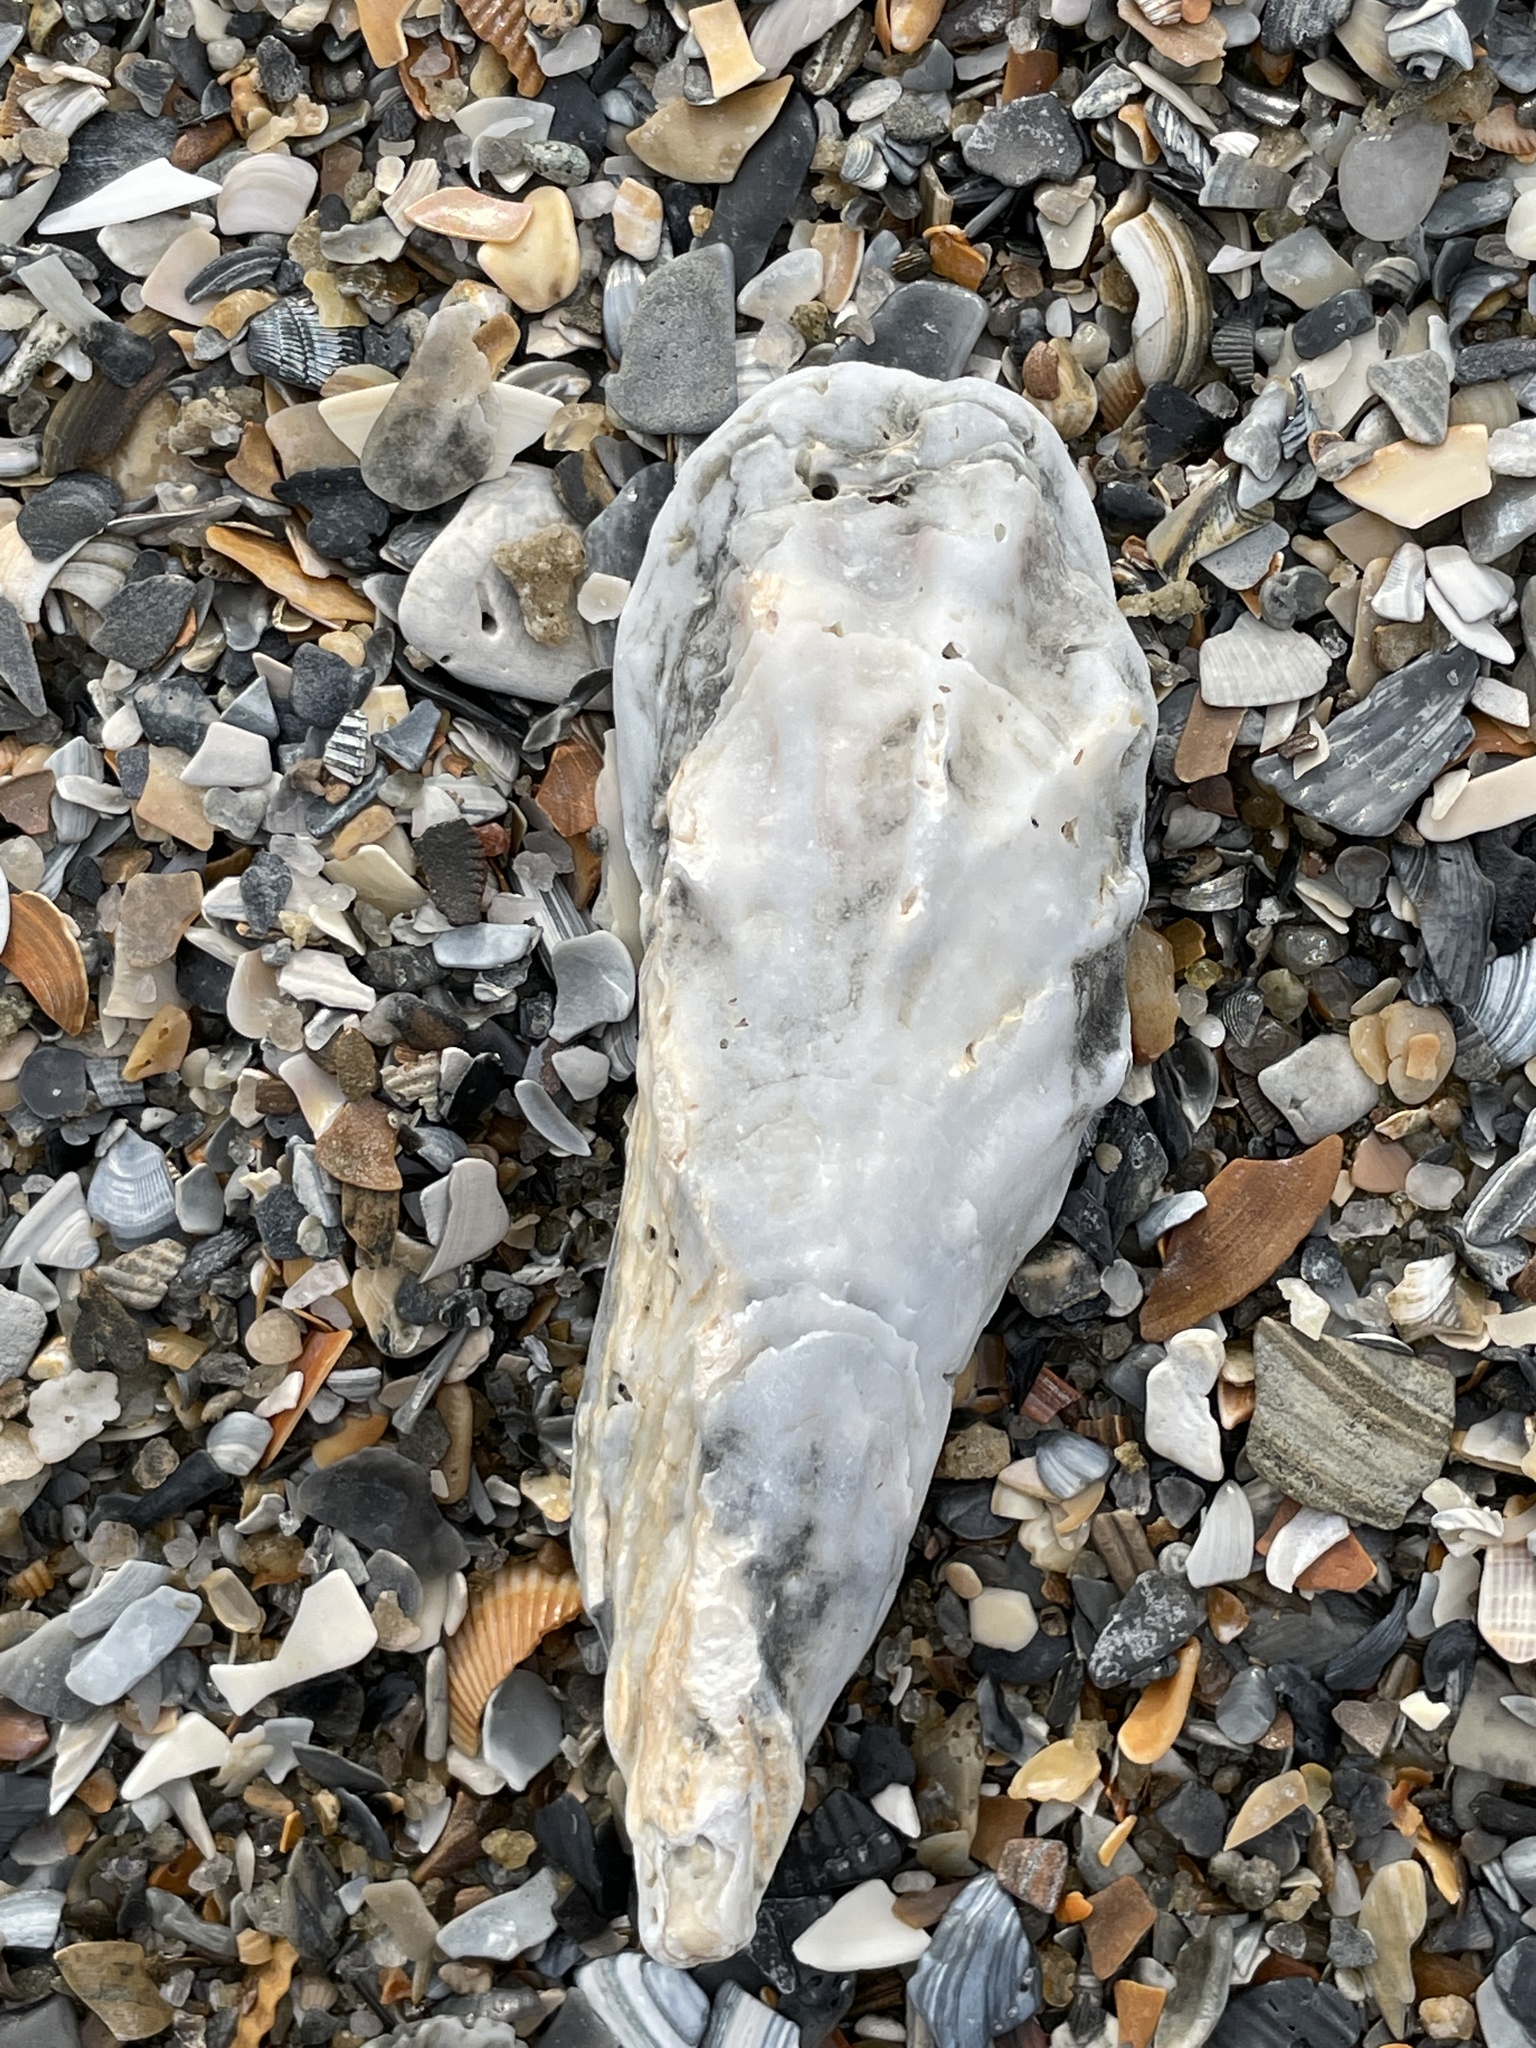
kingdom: Animalia
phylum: Mollusca
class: Bivalvia
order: Ostreida
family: Ostreidae
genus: Crassostrea
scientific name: Crassostrea virginica
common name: American oyster
